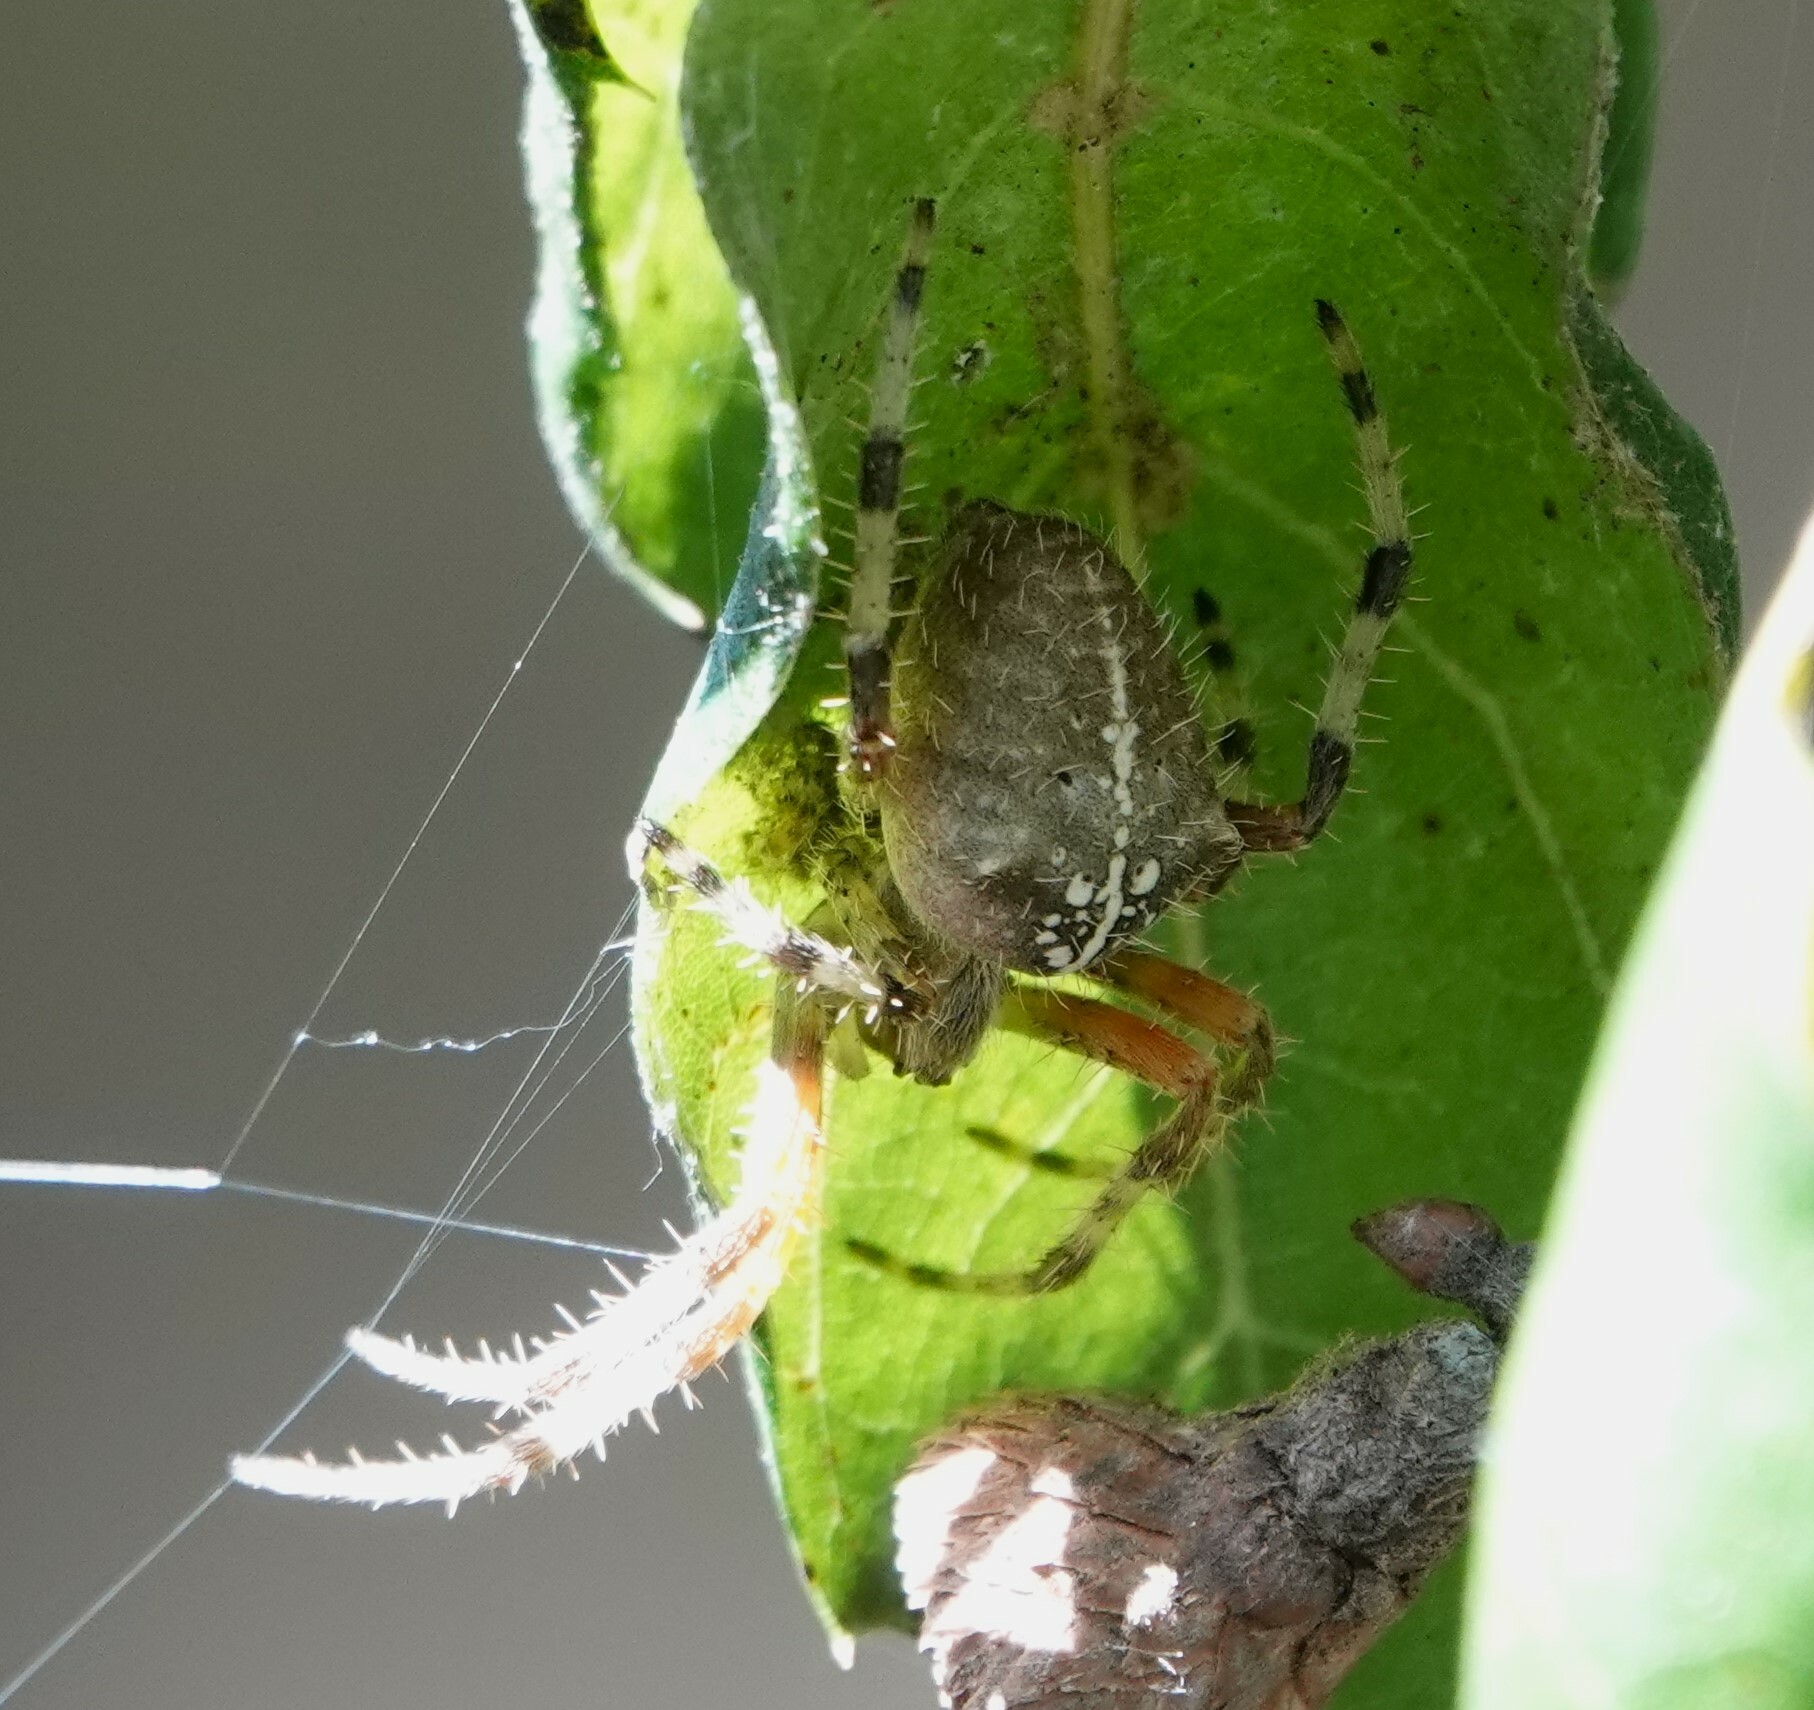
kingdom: Animalia
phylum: Arthropoda
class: Arachnida
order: Araneae
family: Araneidae
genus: Araneus
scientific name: Araneus gemma
